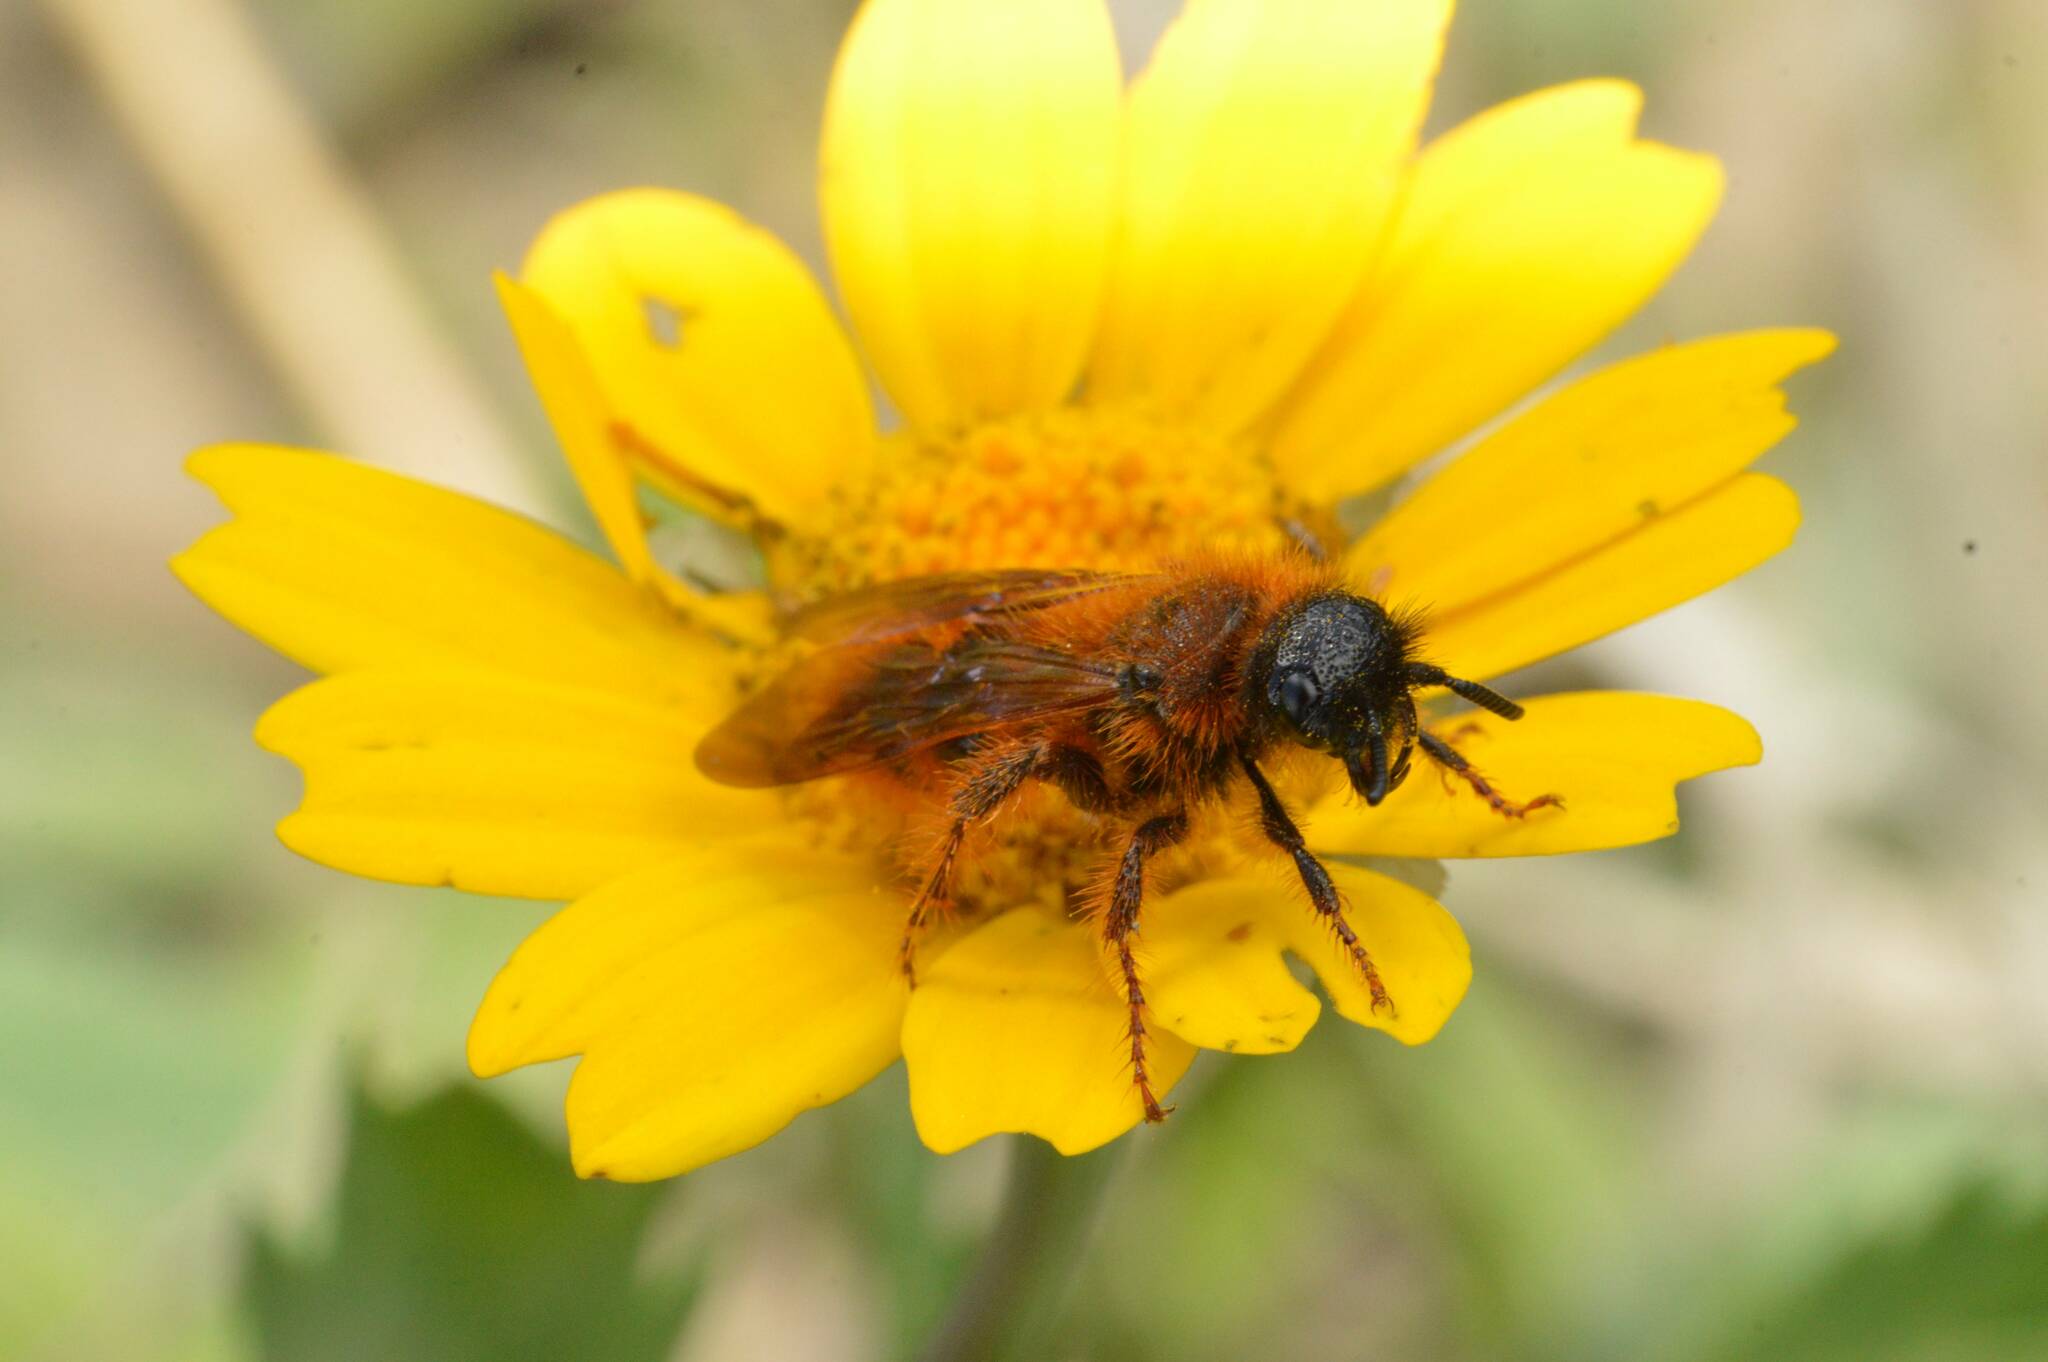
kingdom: Animalia
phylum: Arthropoda
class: Insecta
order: Hymenoptera
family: Scoliidae
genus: Dasyscolia
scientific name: Dasyscolia ciliata
